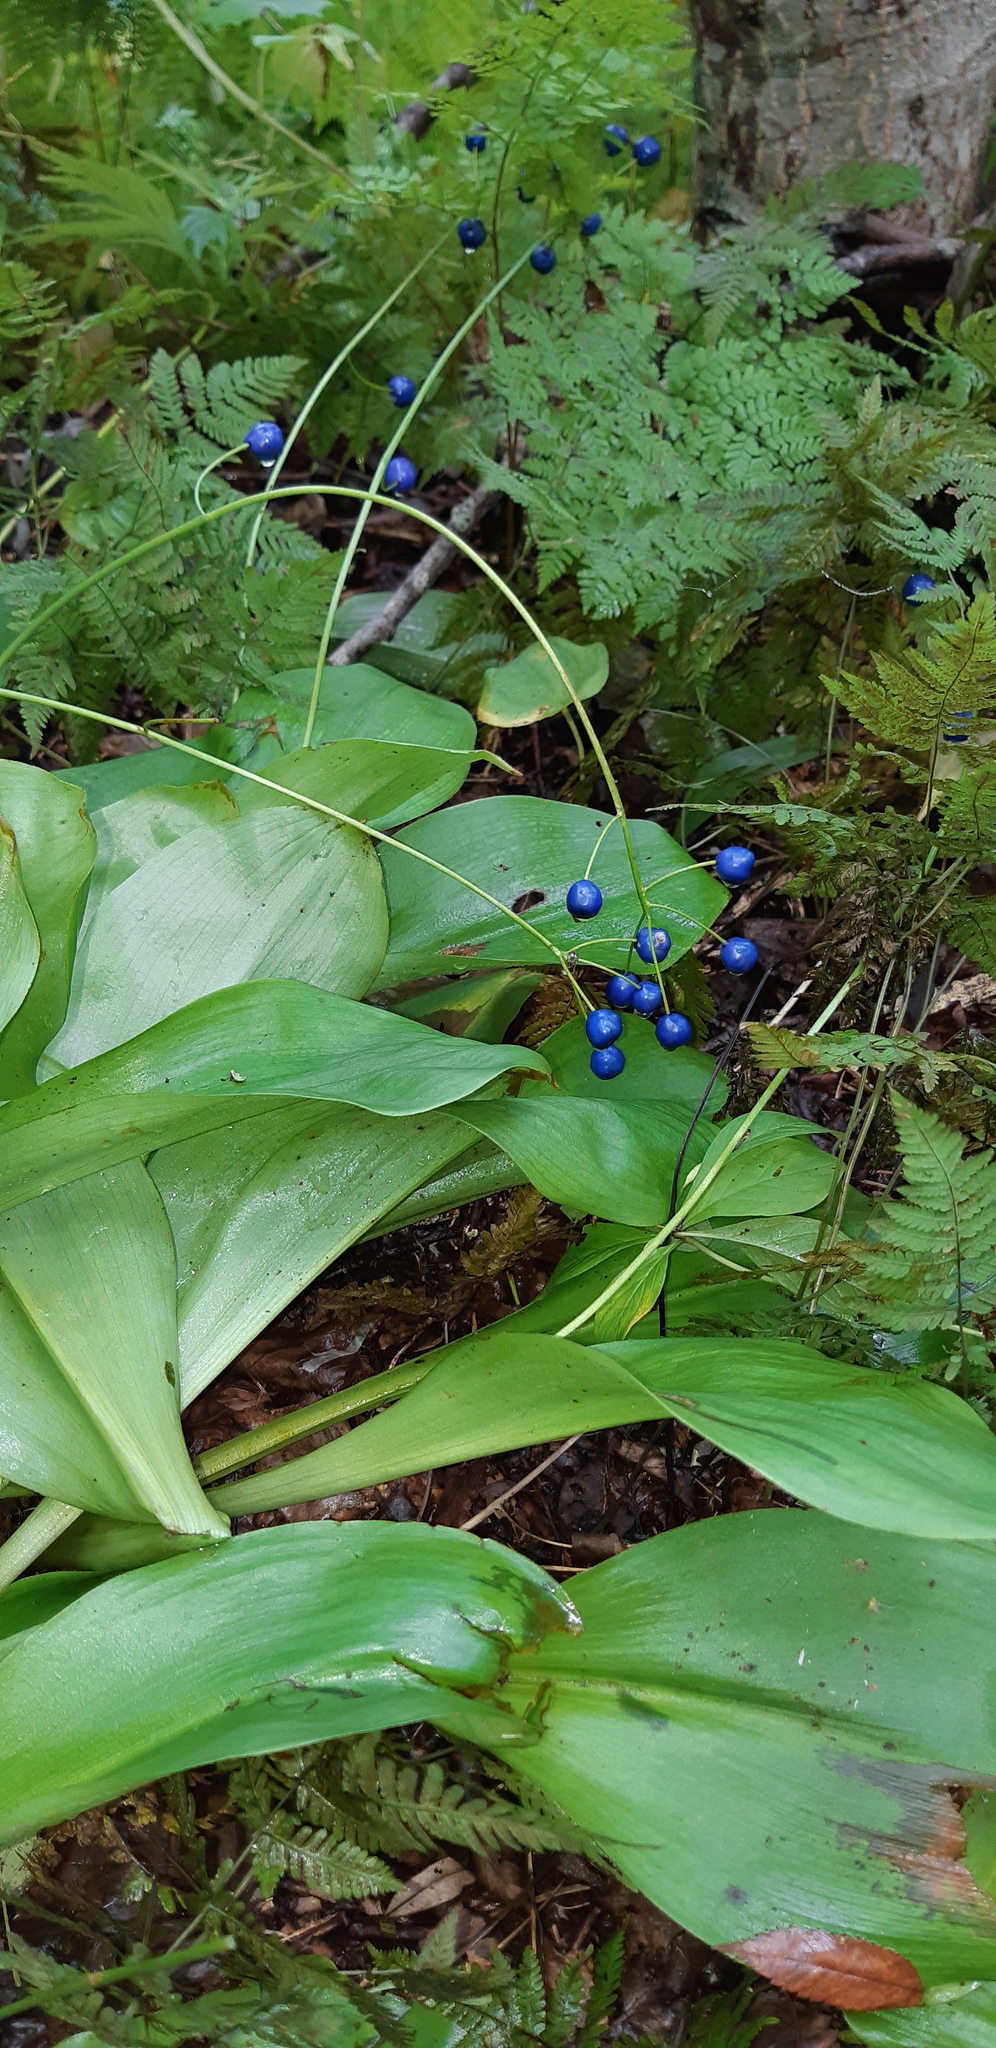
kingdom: Plantae
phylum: Tracheophyta
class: Liliopsida
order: Liliales
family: Liliaceae
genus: Clintonia
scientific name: Clintonia udensis
